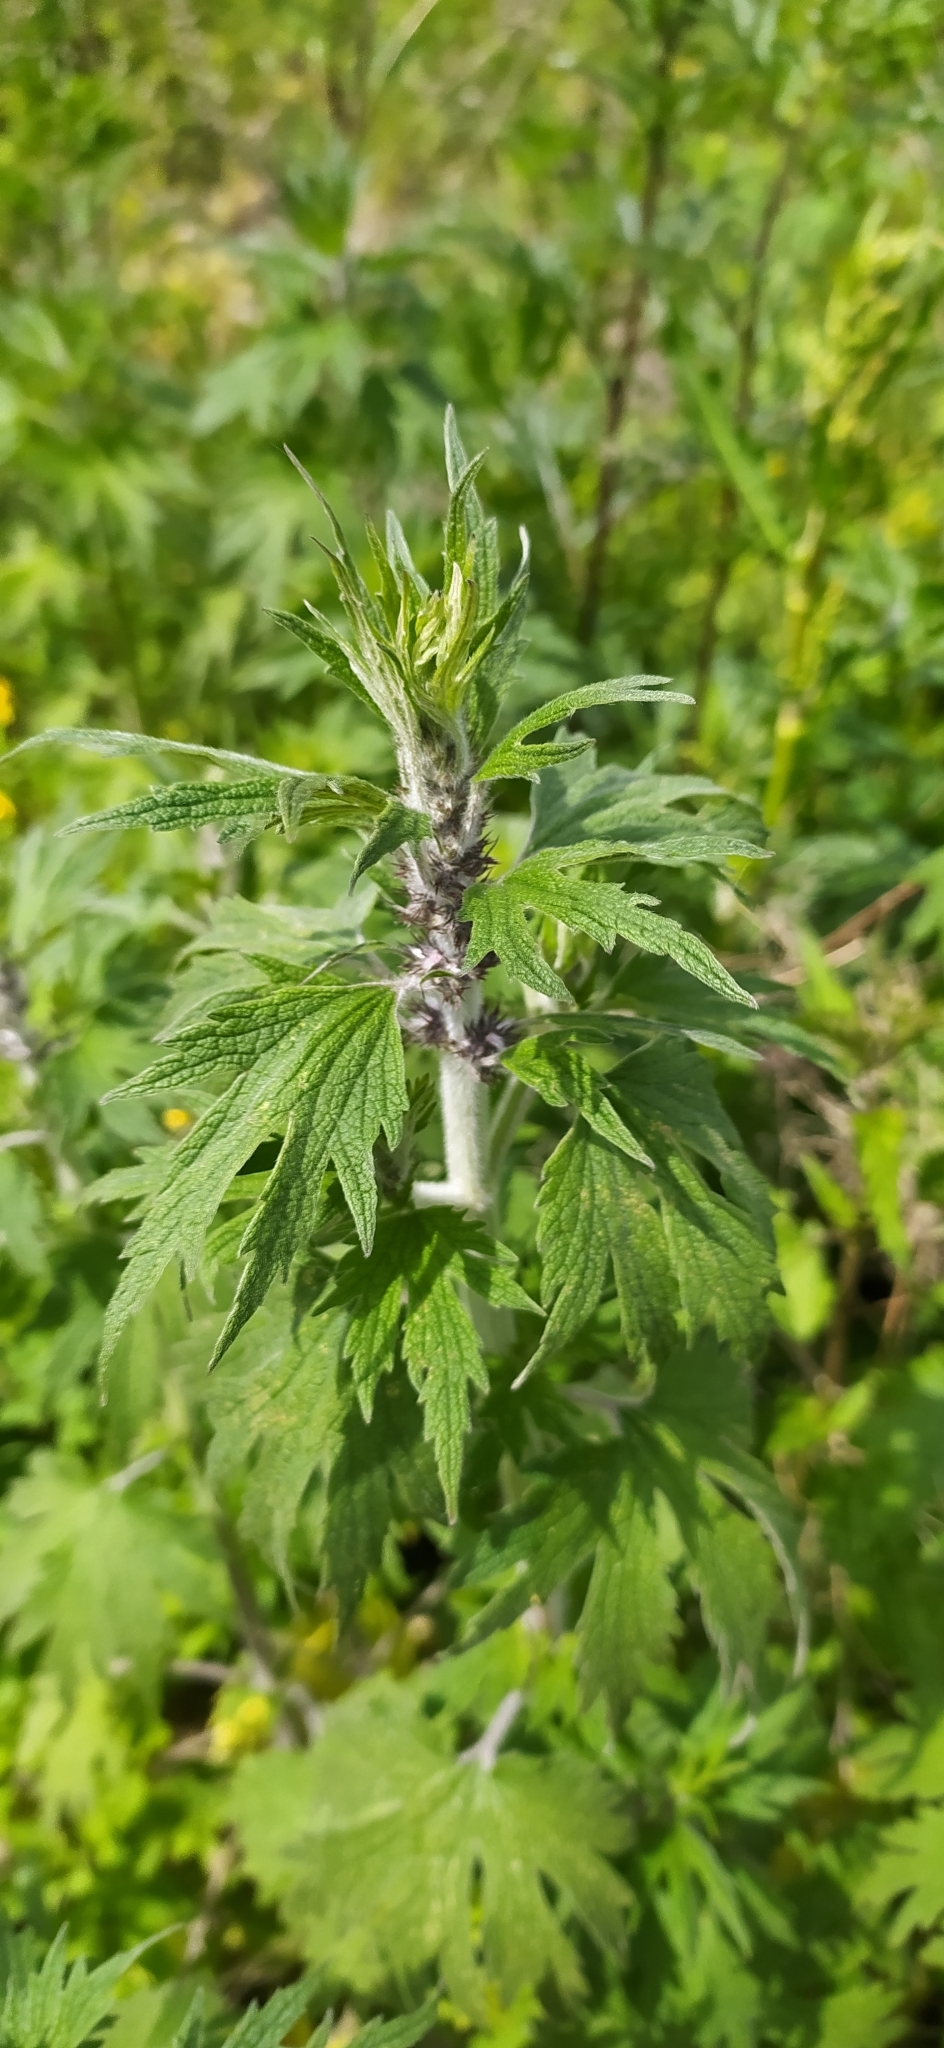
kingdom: Plantae
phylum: Tracheophyta
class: Magnoliopsida
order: Lamiales
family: Lamiaceae
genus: Leonurus
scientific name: Leonurus quinquelobatus
